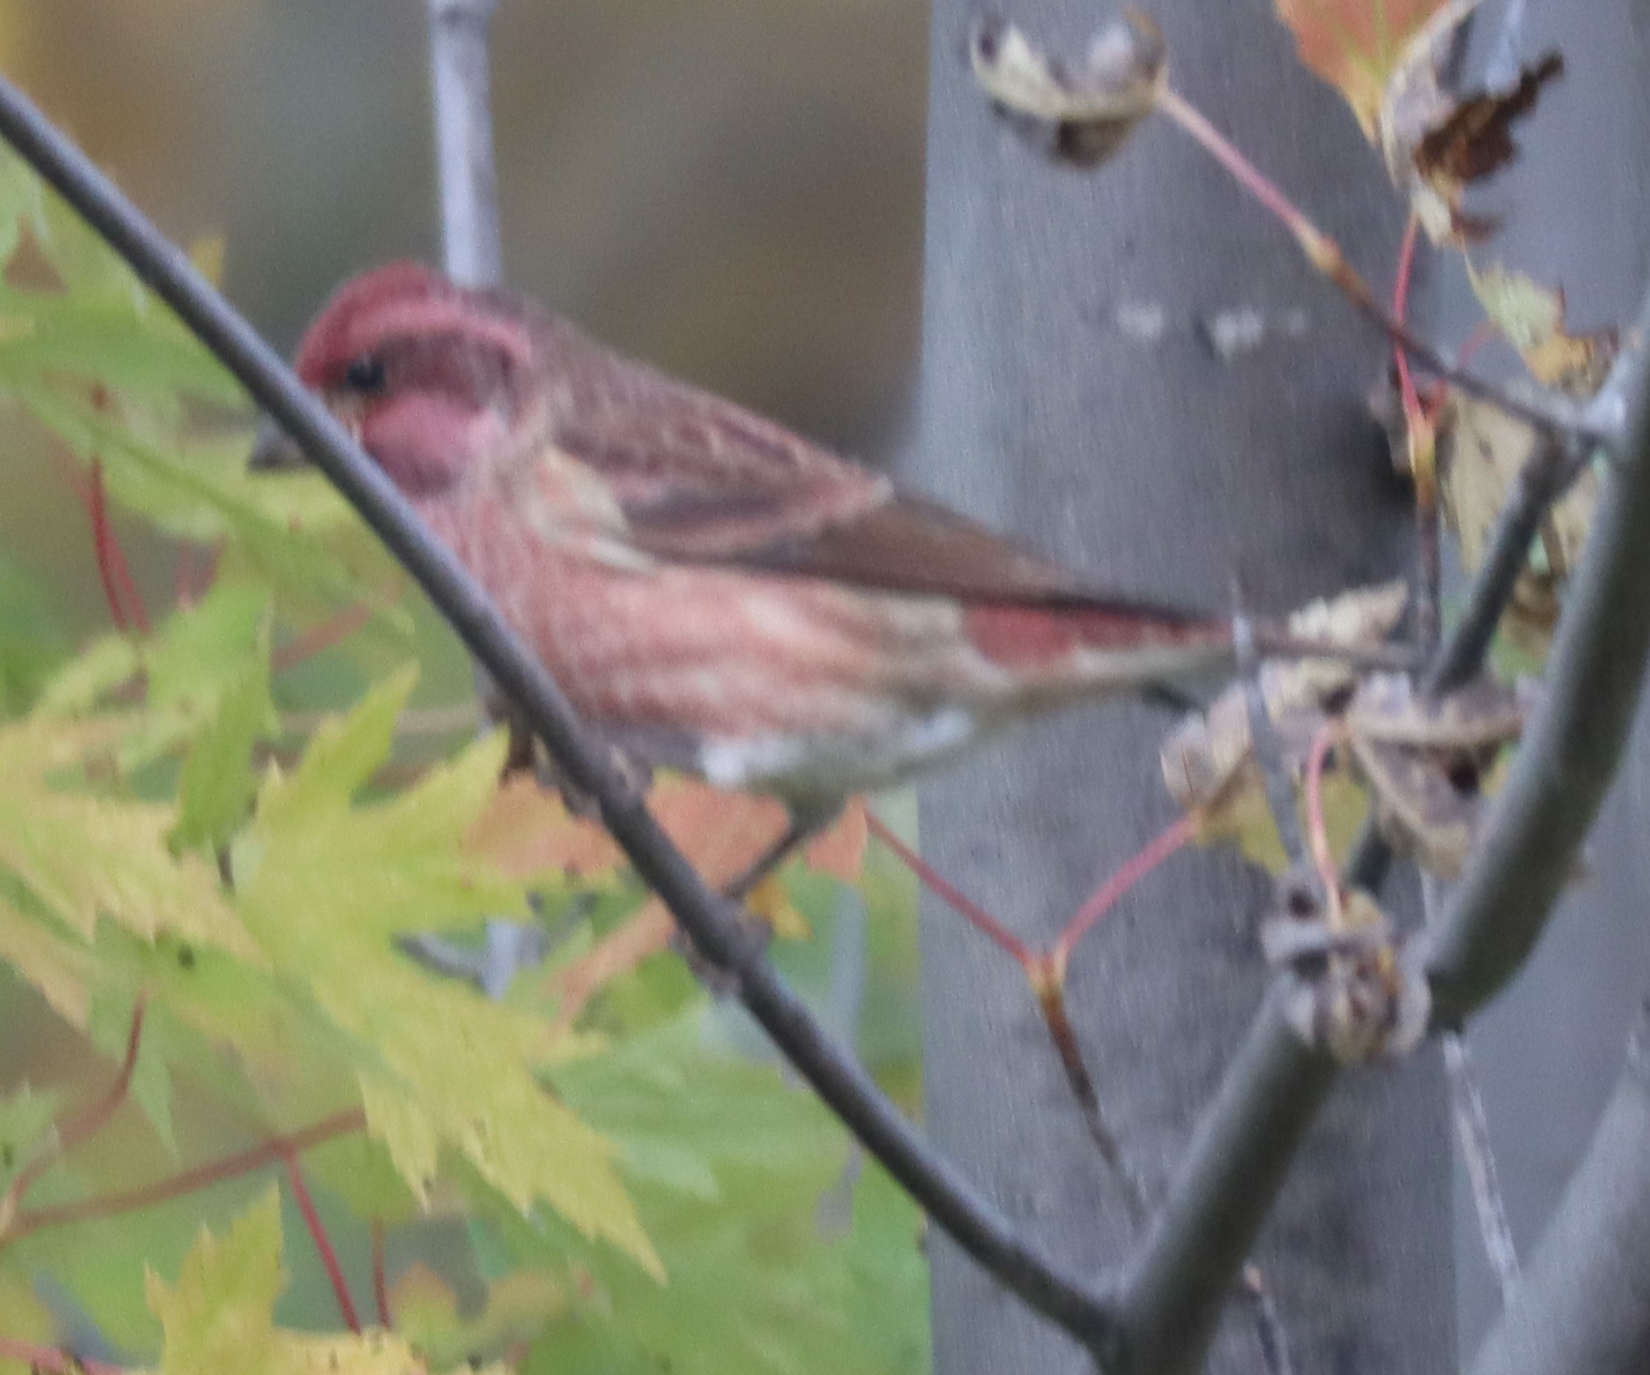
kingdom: Animalia
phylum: Chordata
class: Aves
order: Passeriformes
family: Fringillidae
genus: Haemorhous
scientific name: Haemorhous purpureus
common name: Purple finch
